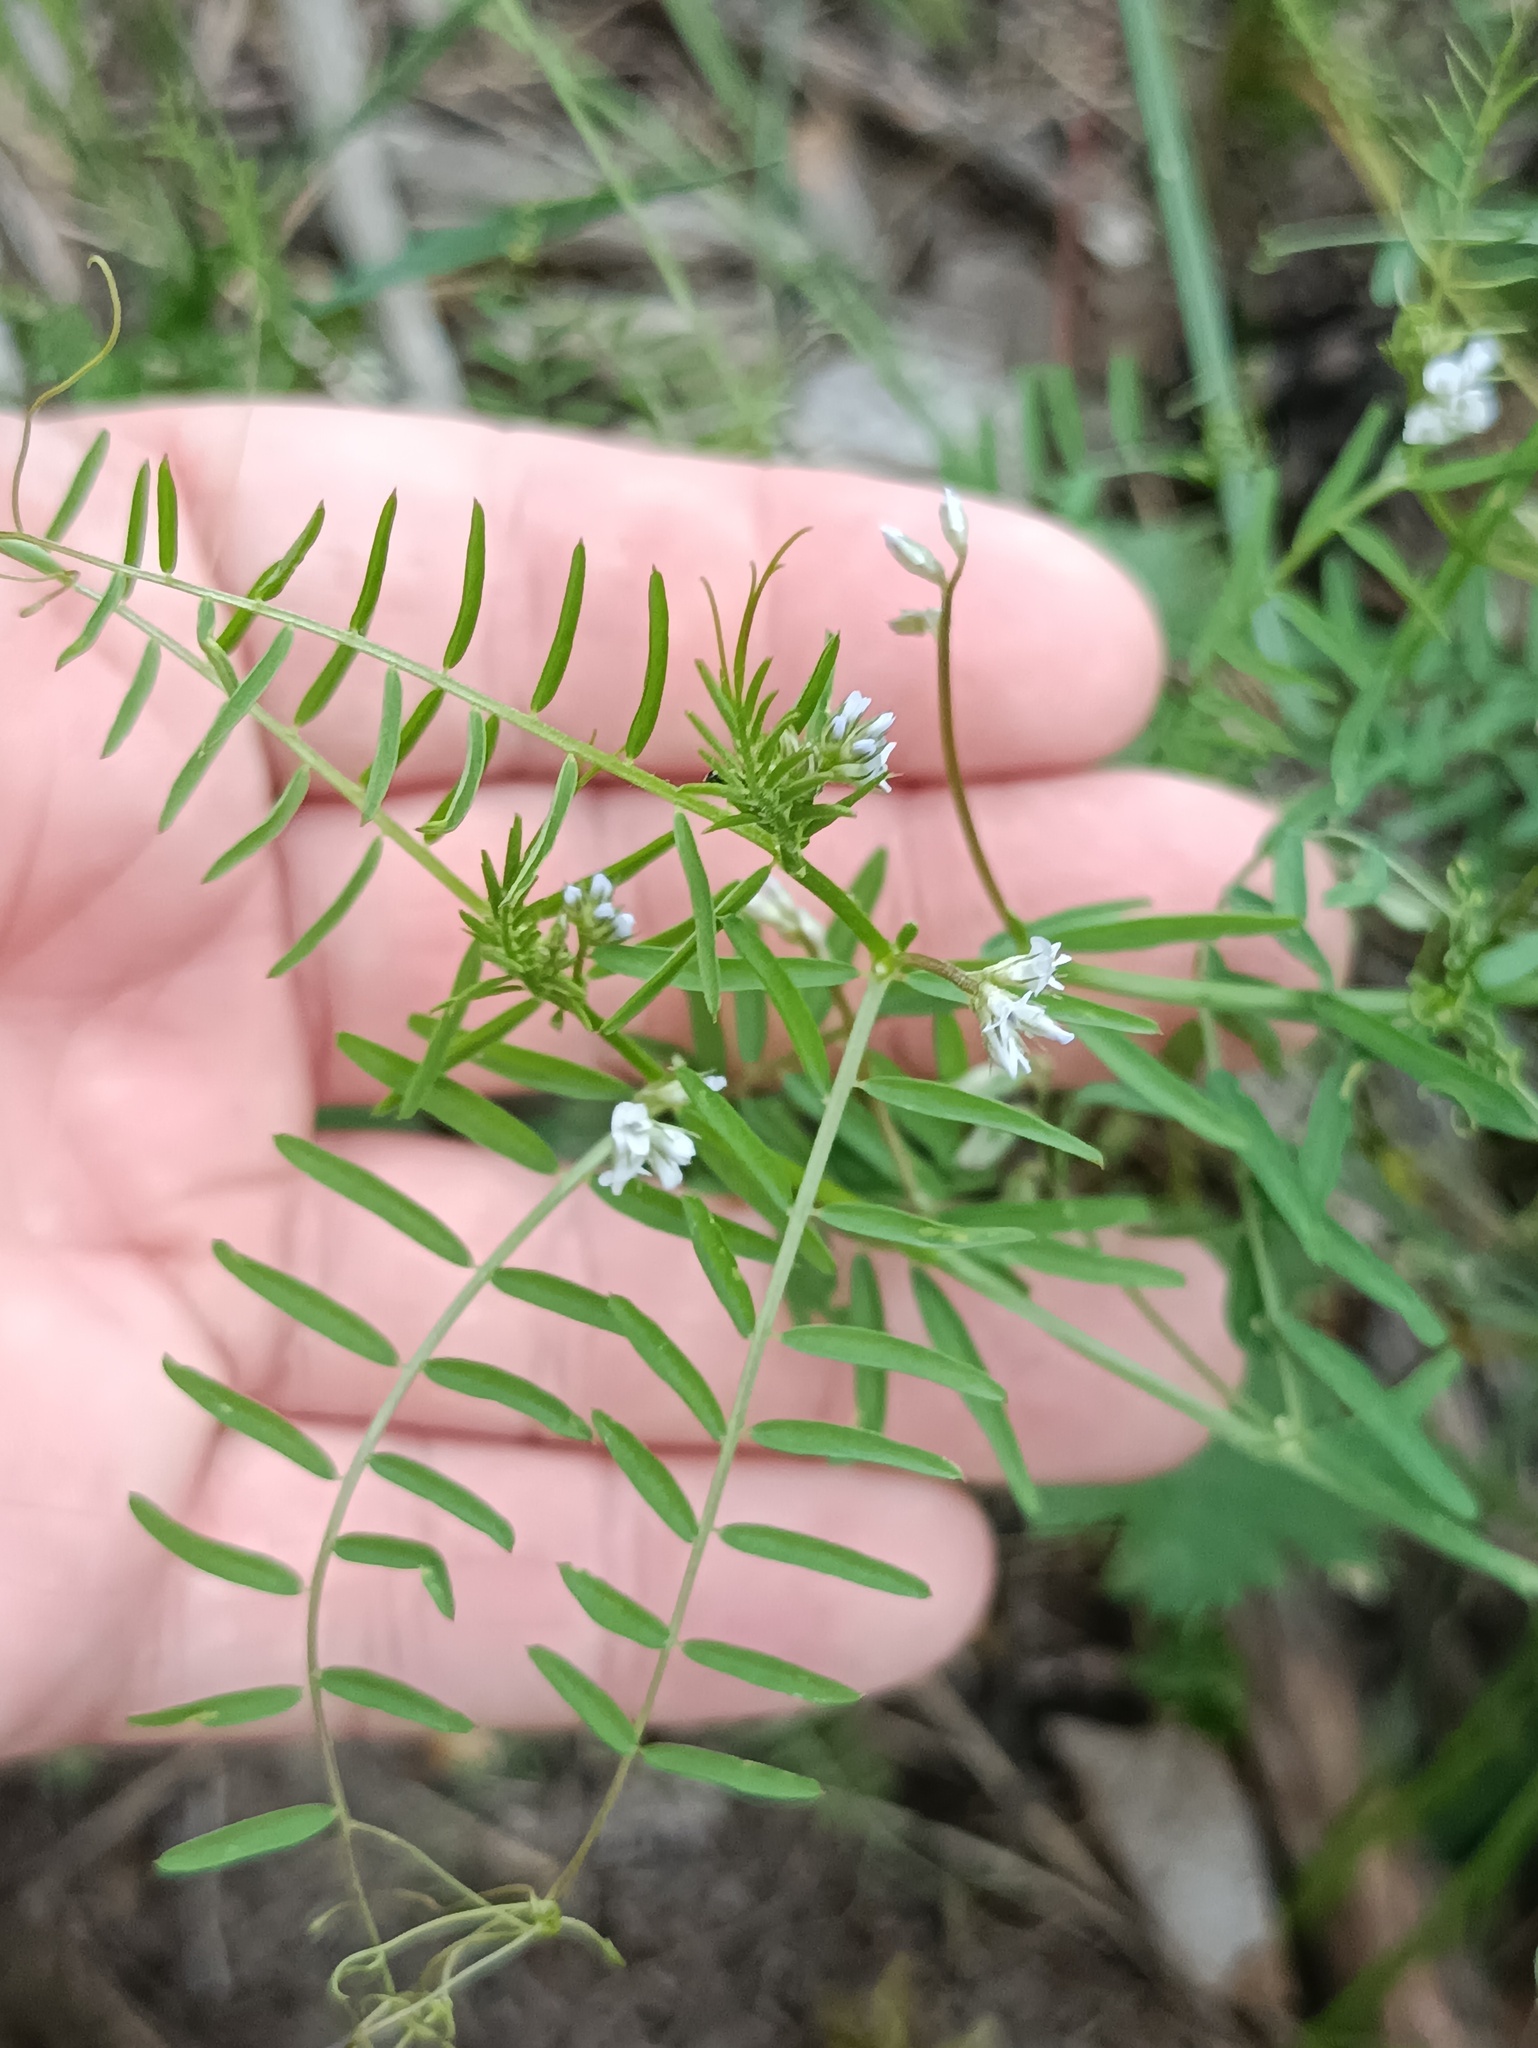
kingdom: Plantae
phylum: Tracheophyta
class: Magnoliopsida
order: Fabales
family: Fabaceae
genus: Vicia
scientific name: Vicia hirsuta
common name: Tiny vetch
